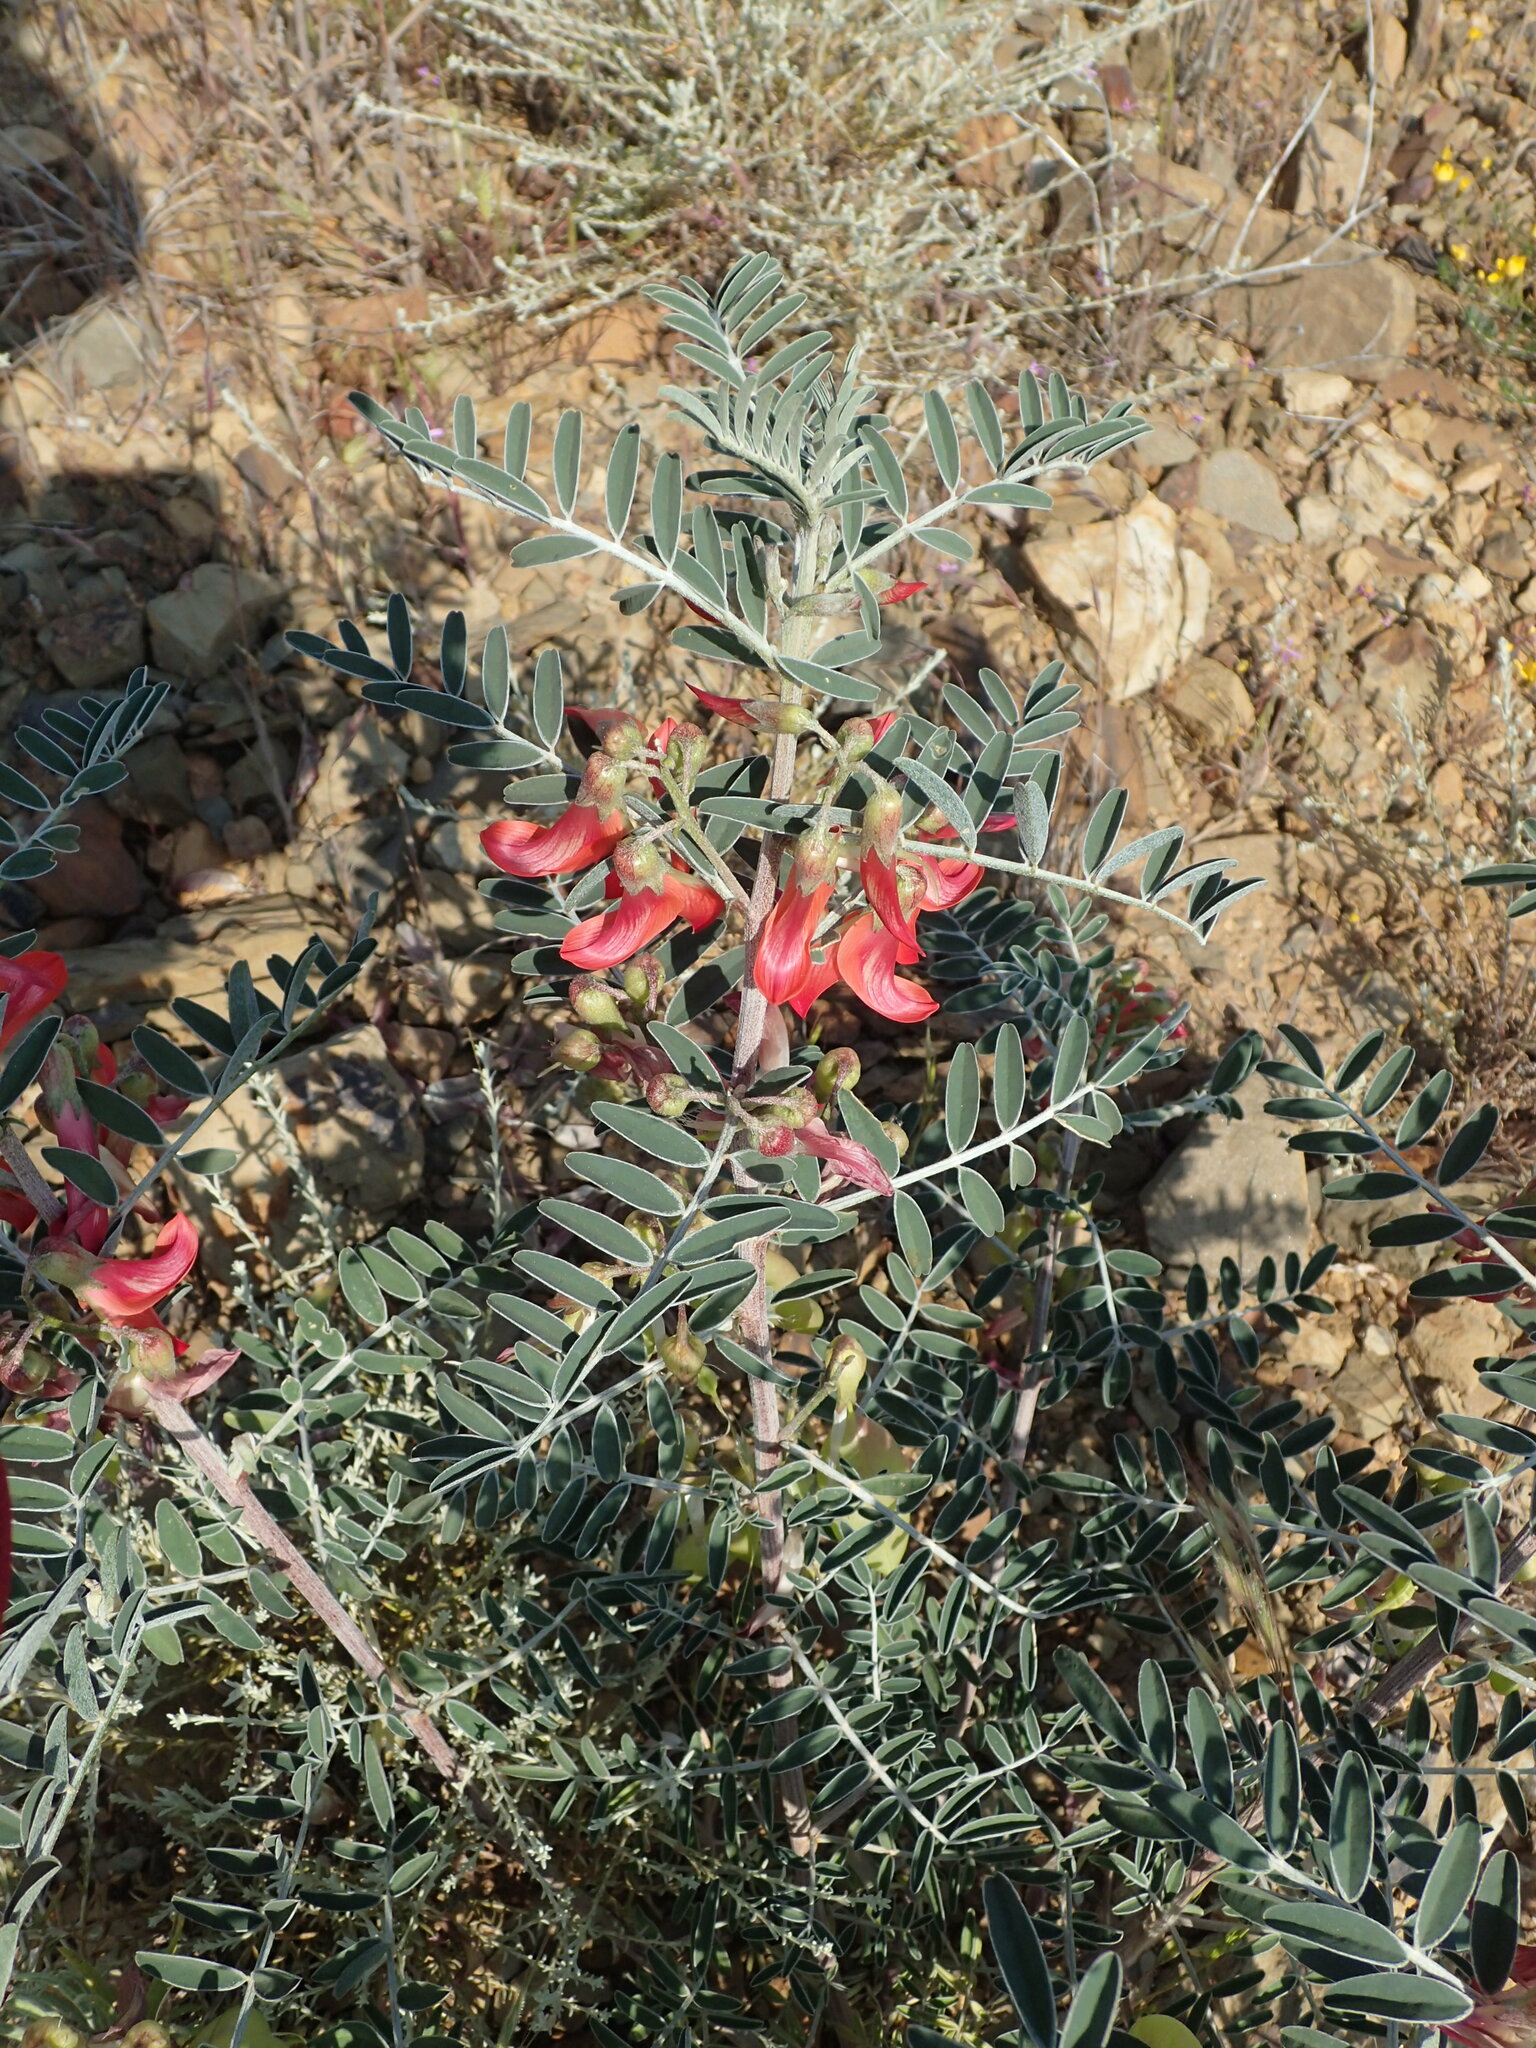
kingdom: Plantae
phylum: Tracheophyta
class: Magnoliopsida
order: Fabales
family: Fabaceae
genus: Lessertia
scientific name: Lessertia frutescens
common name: Balloon-pea
